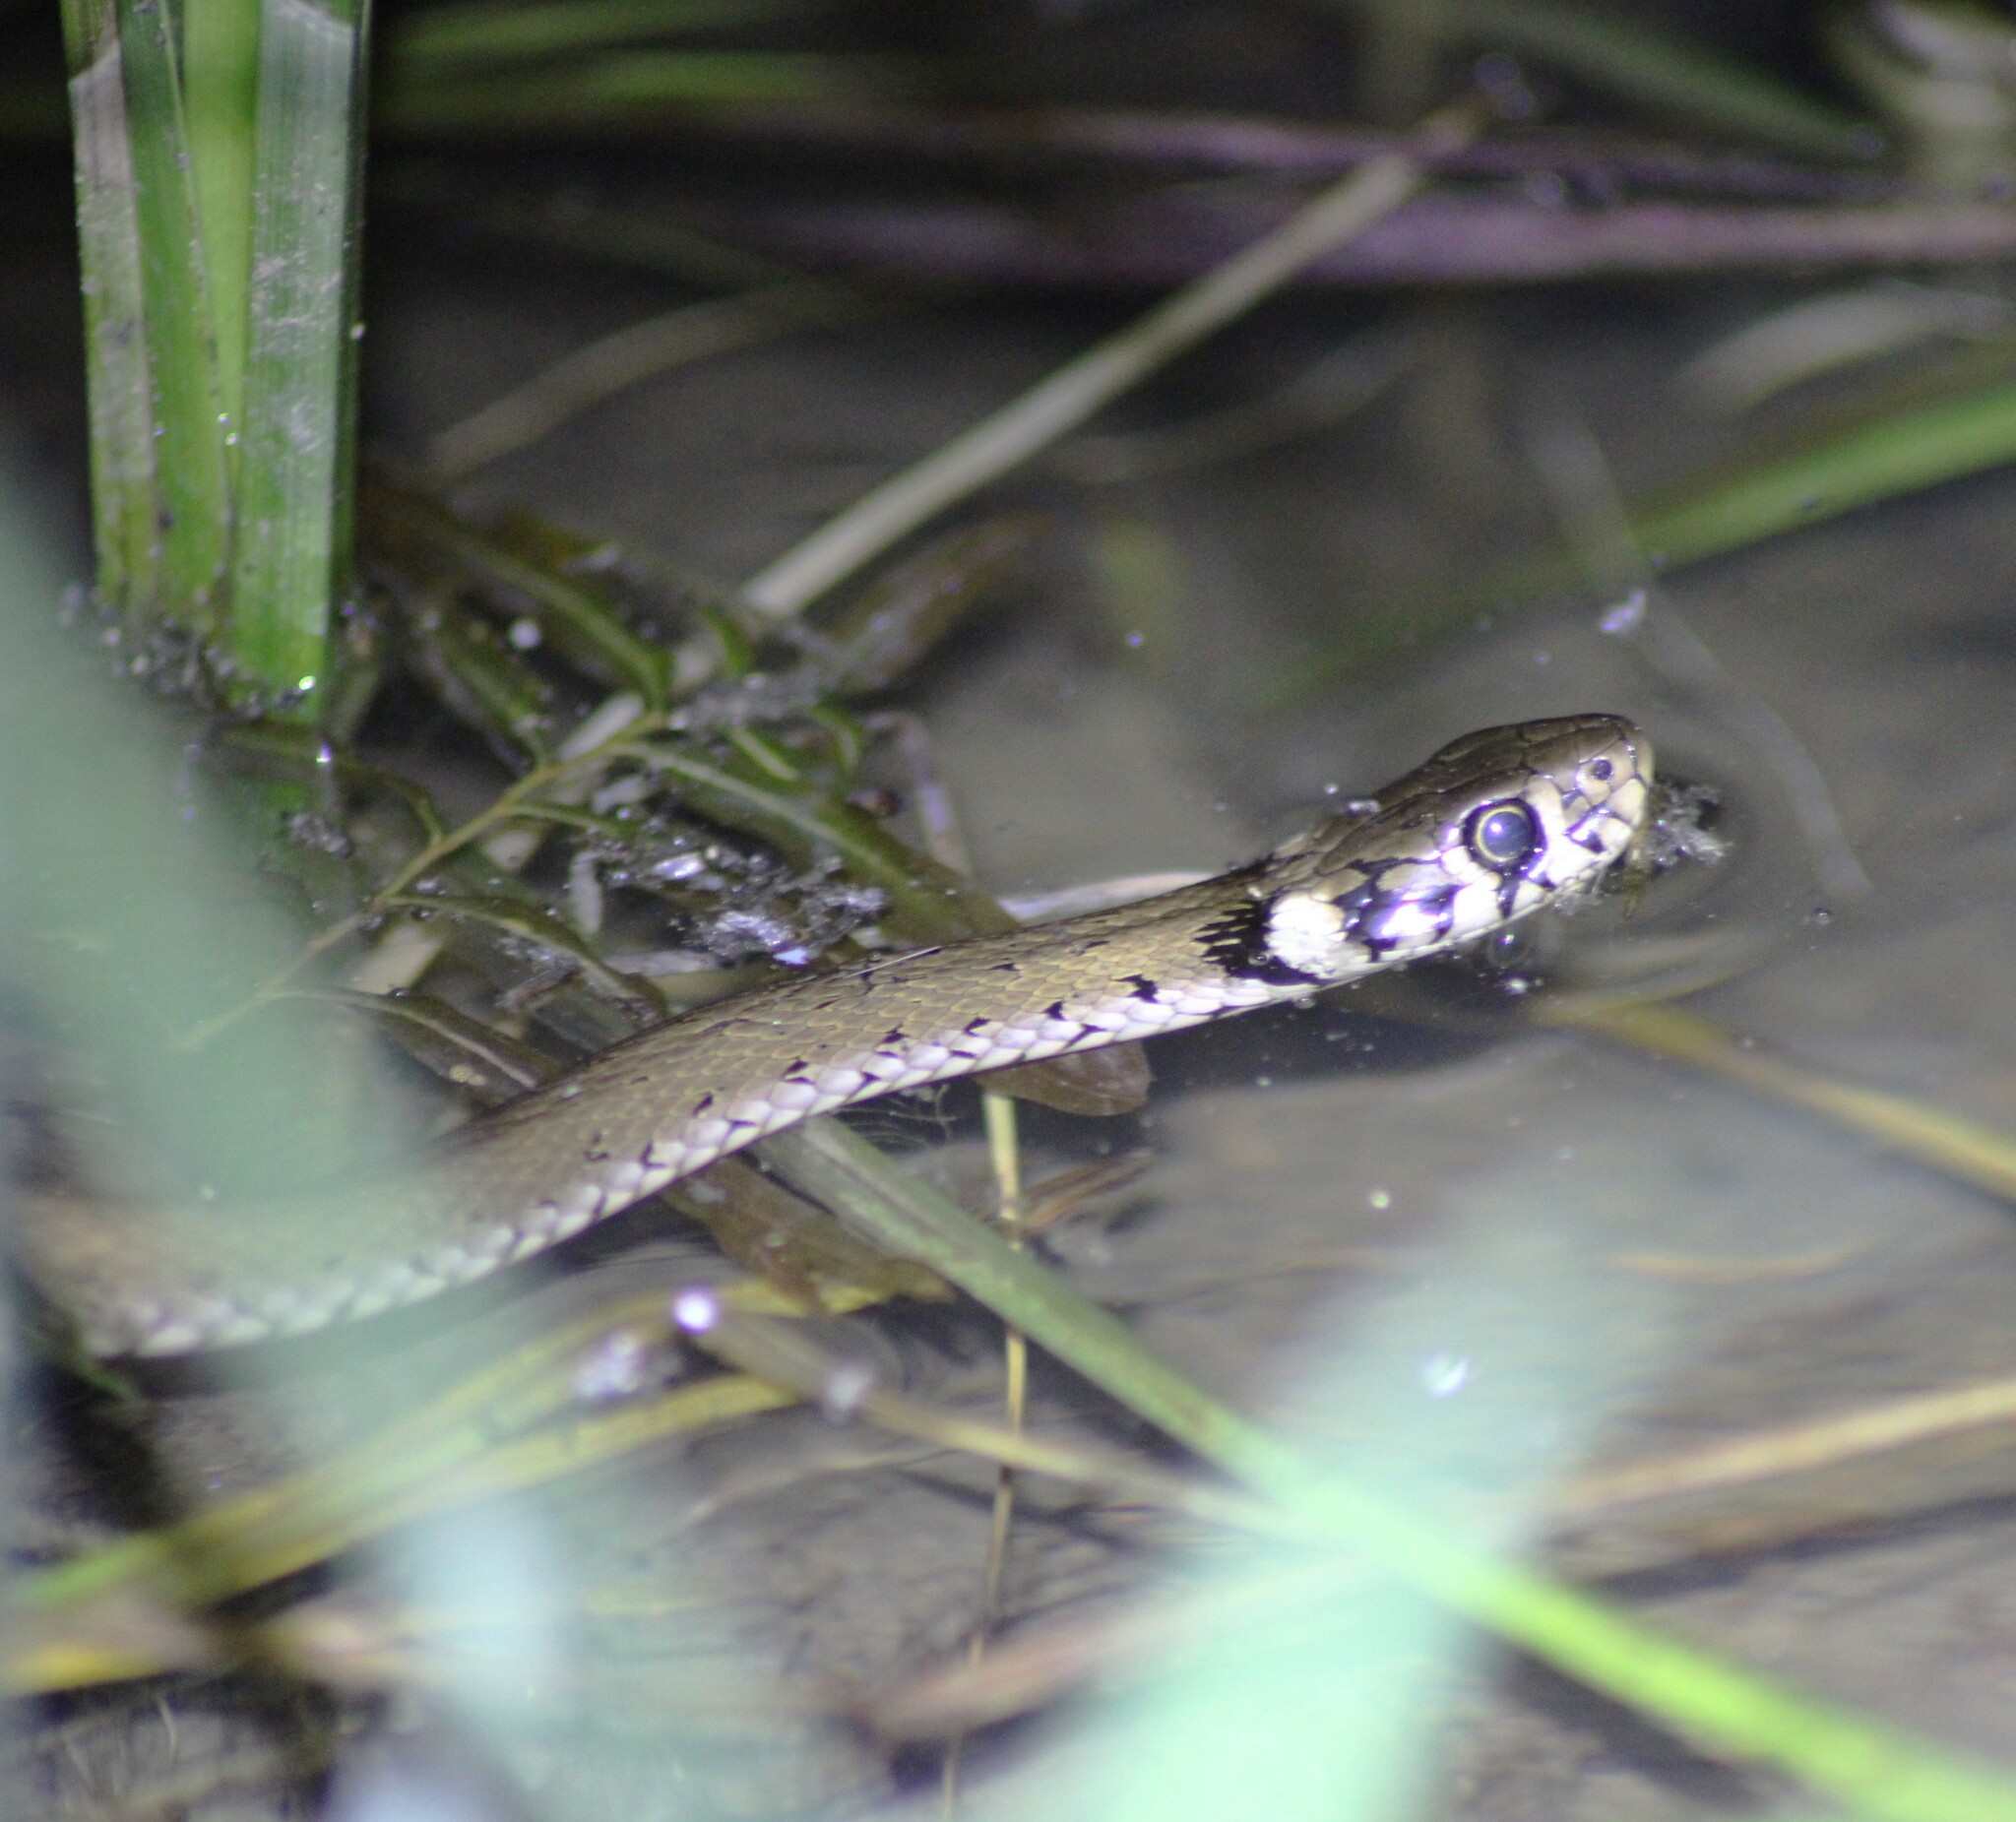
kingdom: Animalia
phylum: Chordata
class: Squamata
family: Colubridae
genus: Natrix
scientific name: Natrix natrix
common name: Grass snake
